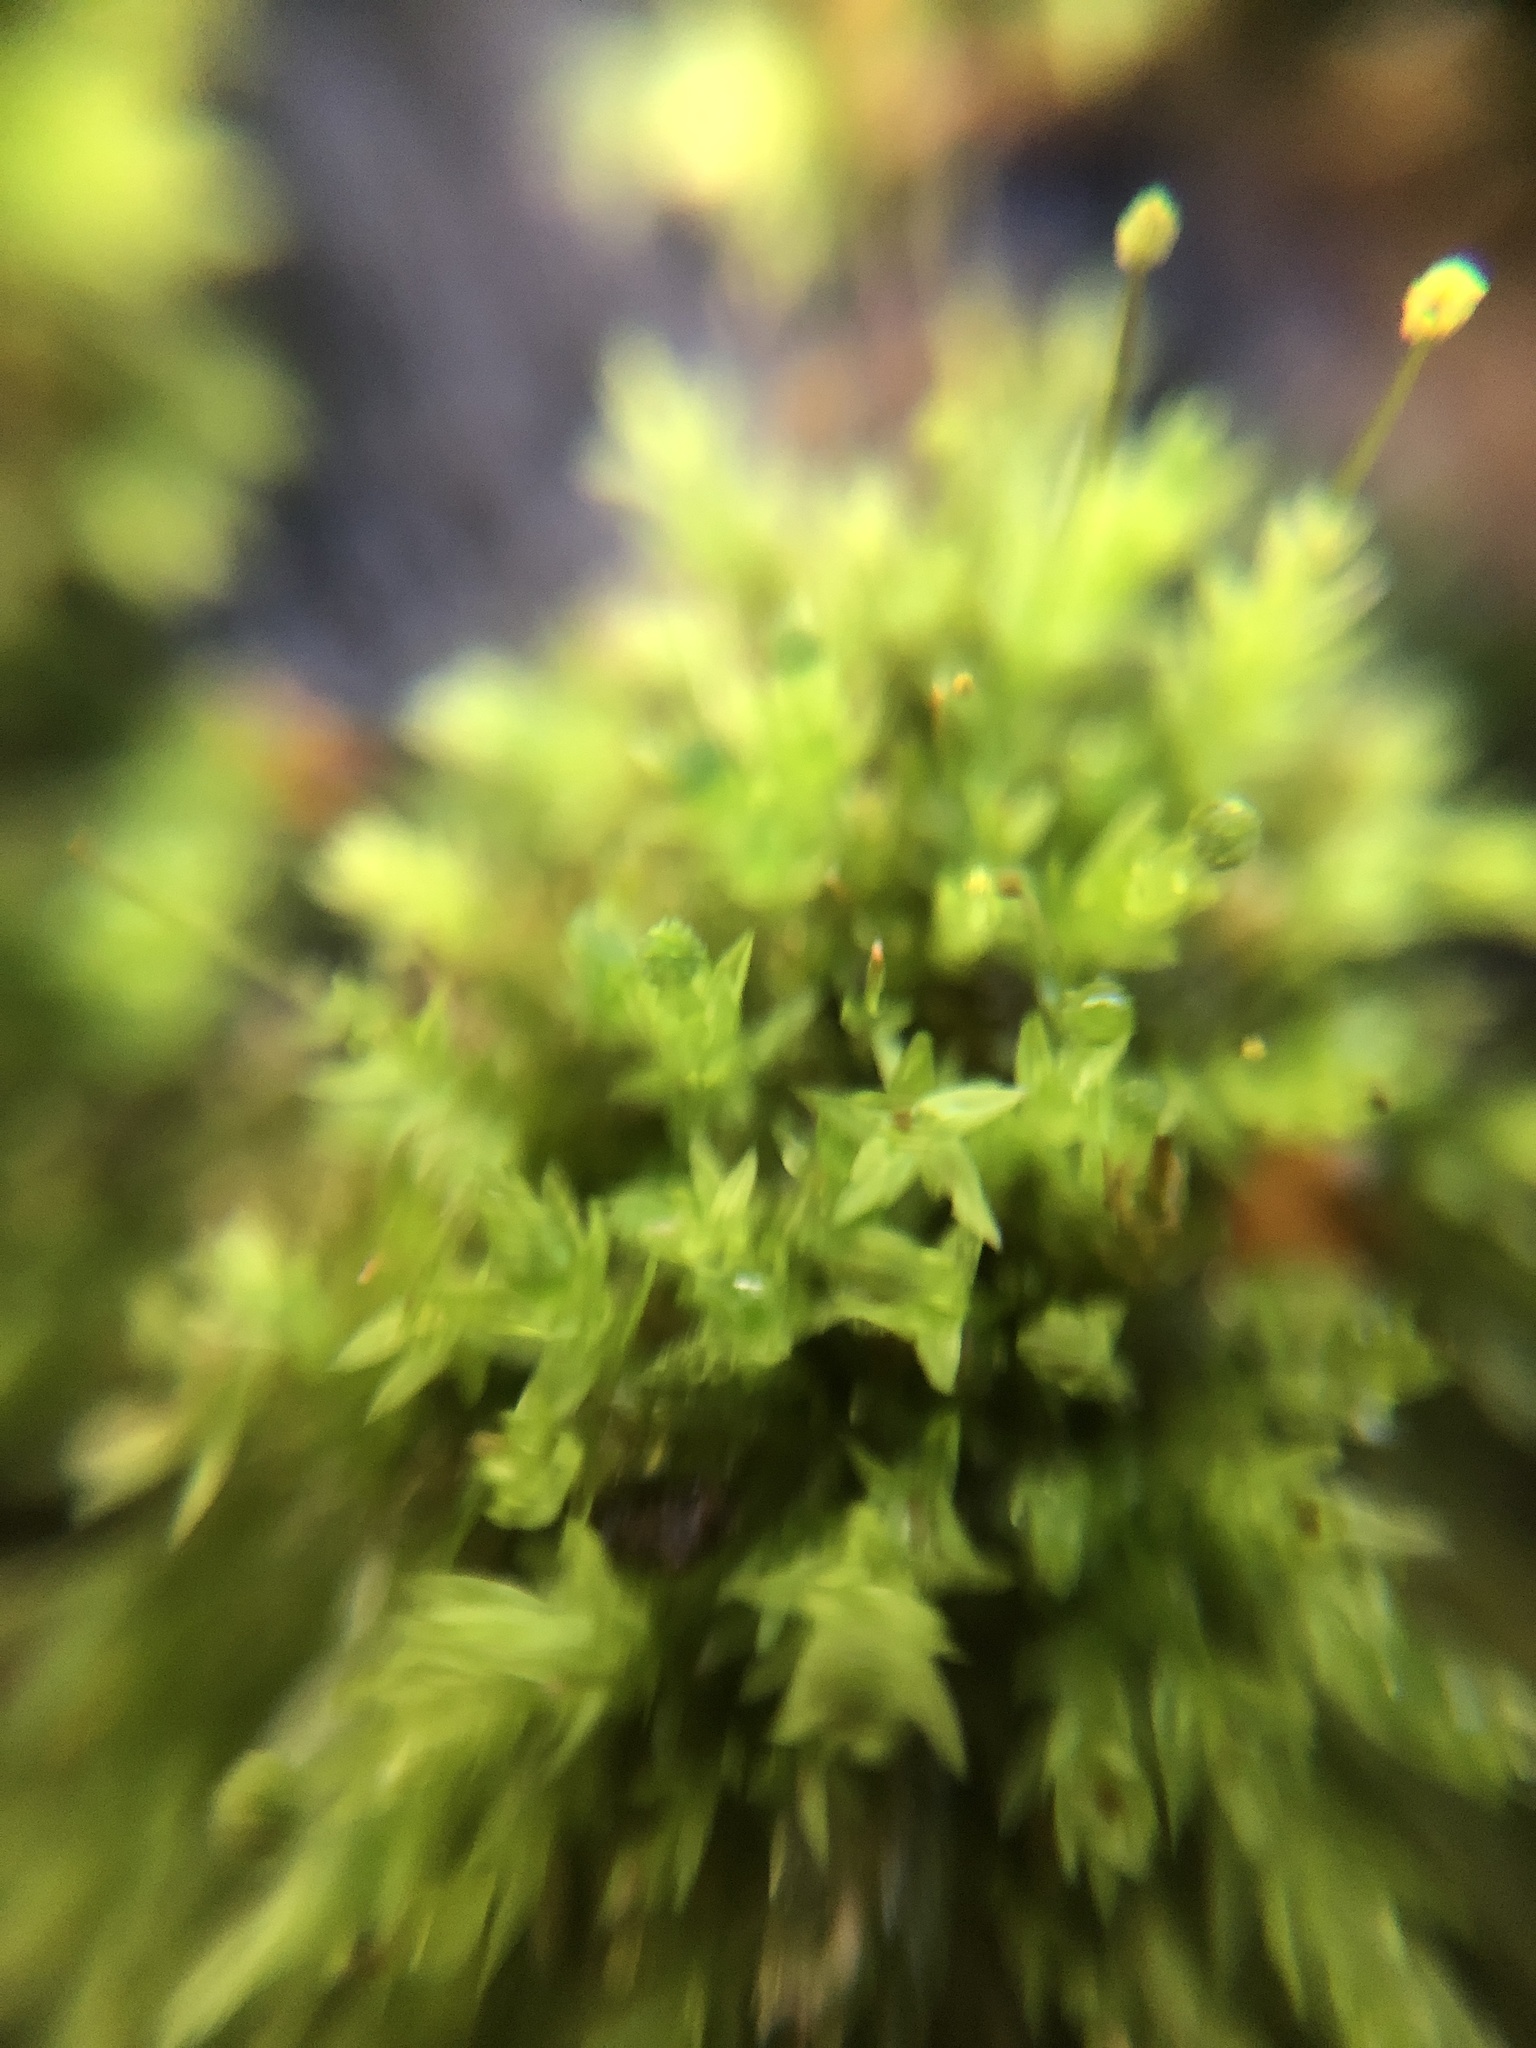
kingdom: Plantae
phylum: Bryophyta
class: Bryopsida
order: Aulacomniales
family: Aulacomniaceae
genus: Aulacomnium
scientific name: Aulacomnium androgynum
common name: Little groove moss
